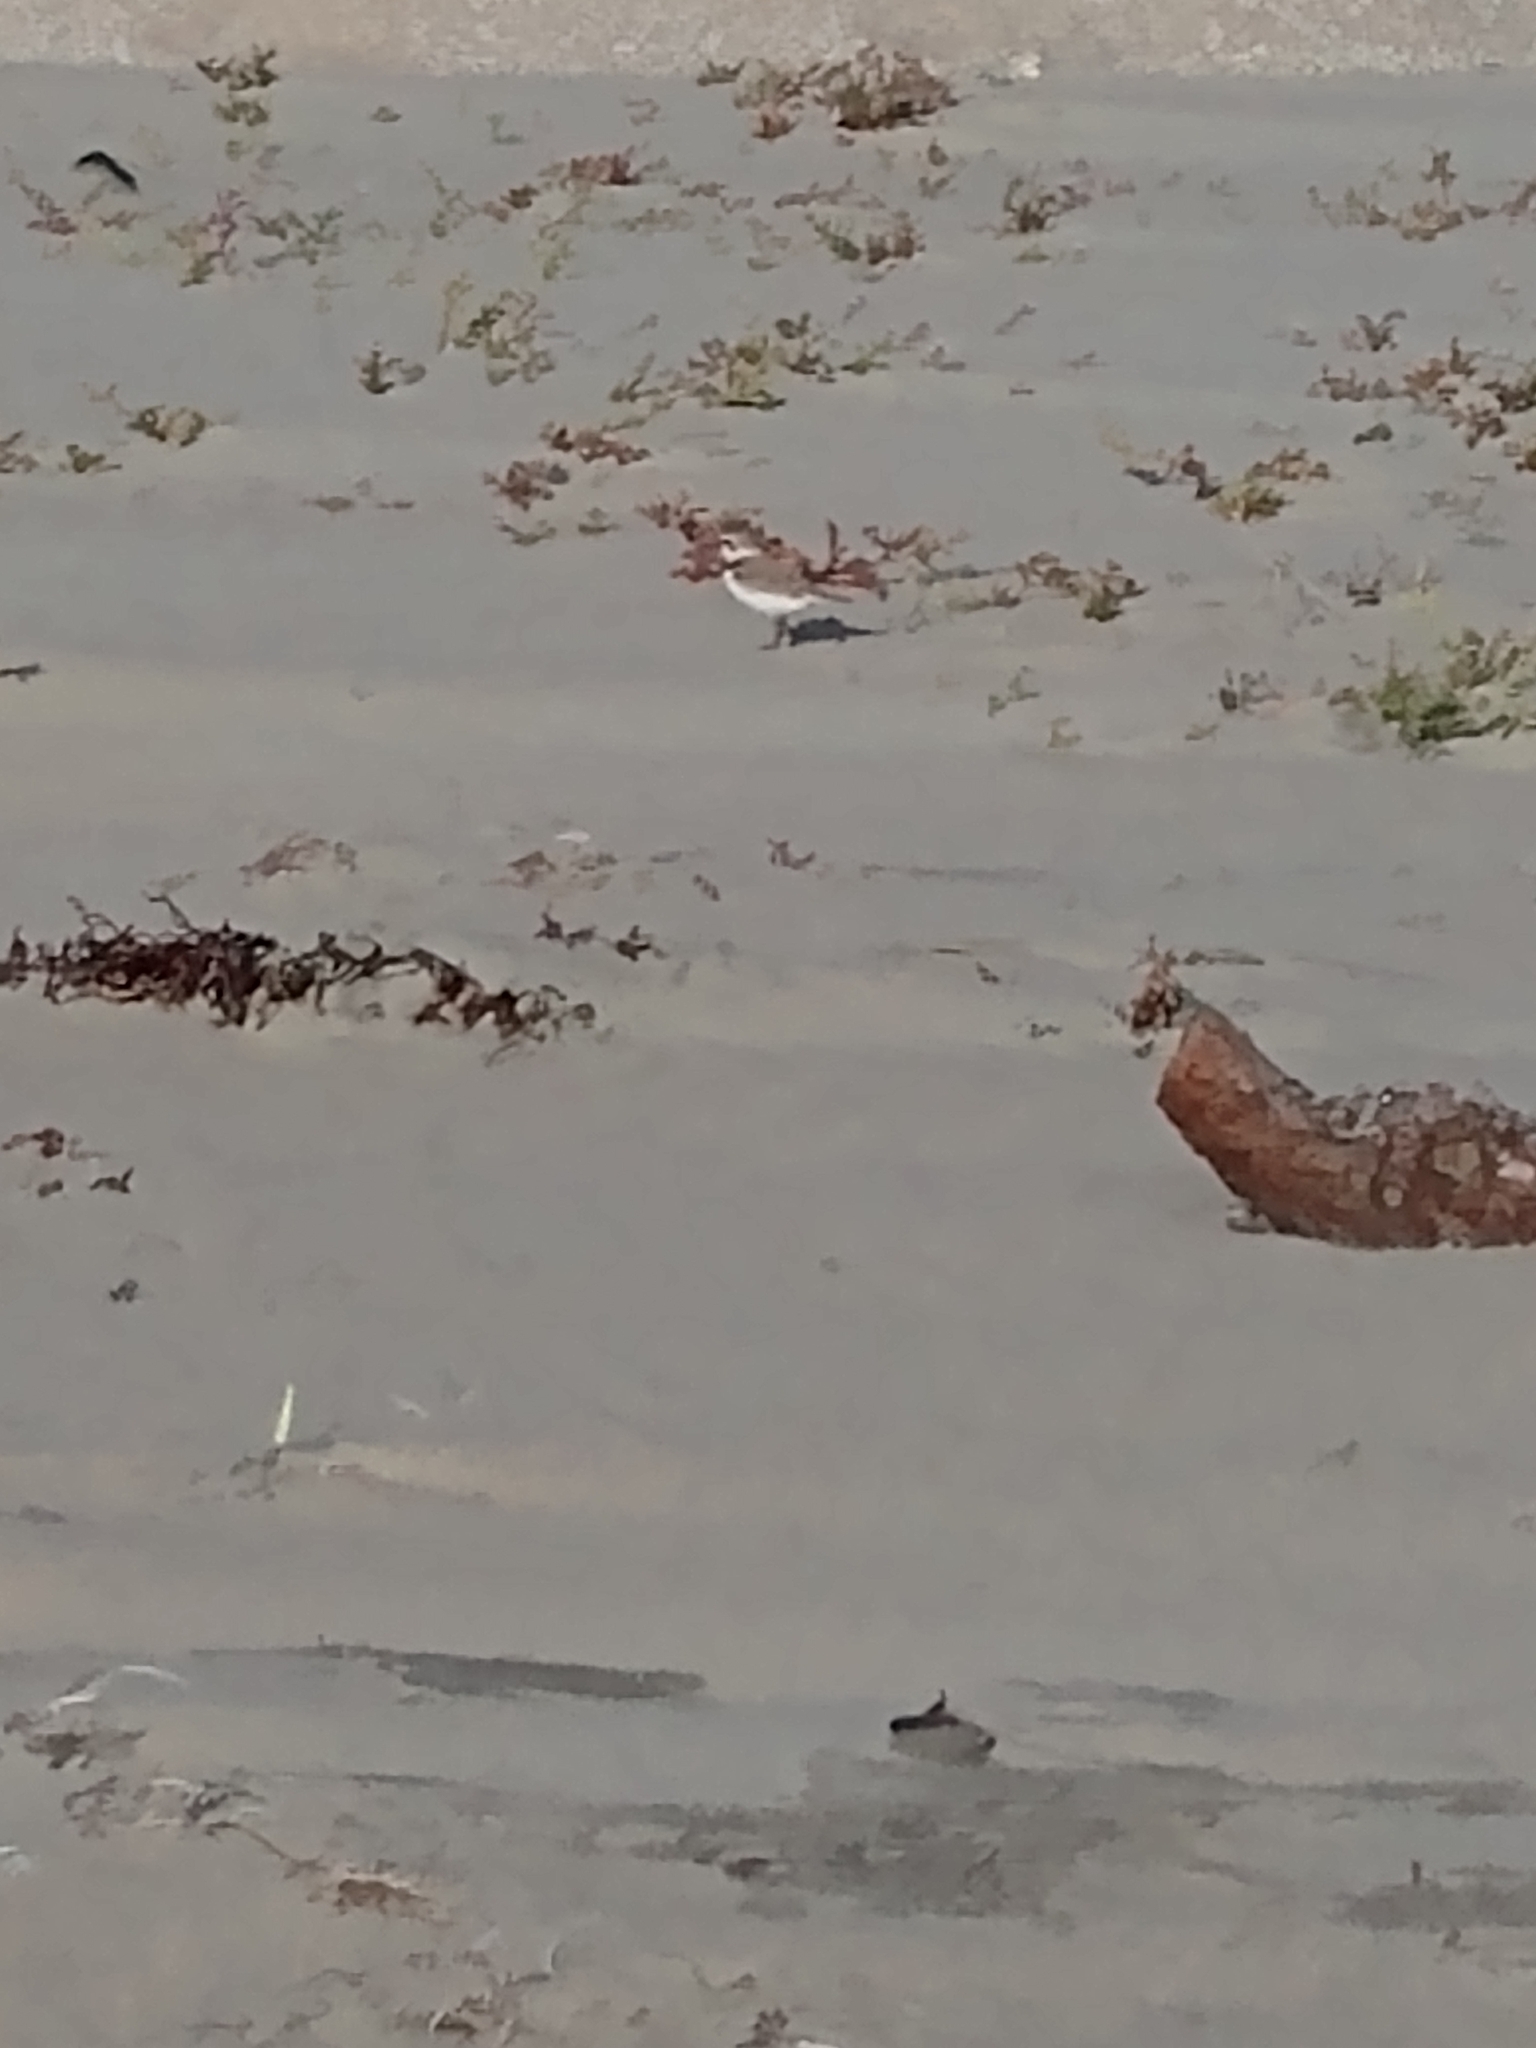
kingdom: Animalia
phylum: Chordata
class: Aves
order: Charadriiformes
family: Charadriidae
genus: Anarhynchus
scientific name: Anarhynchus
